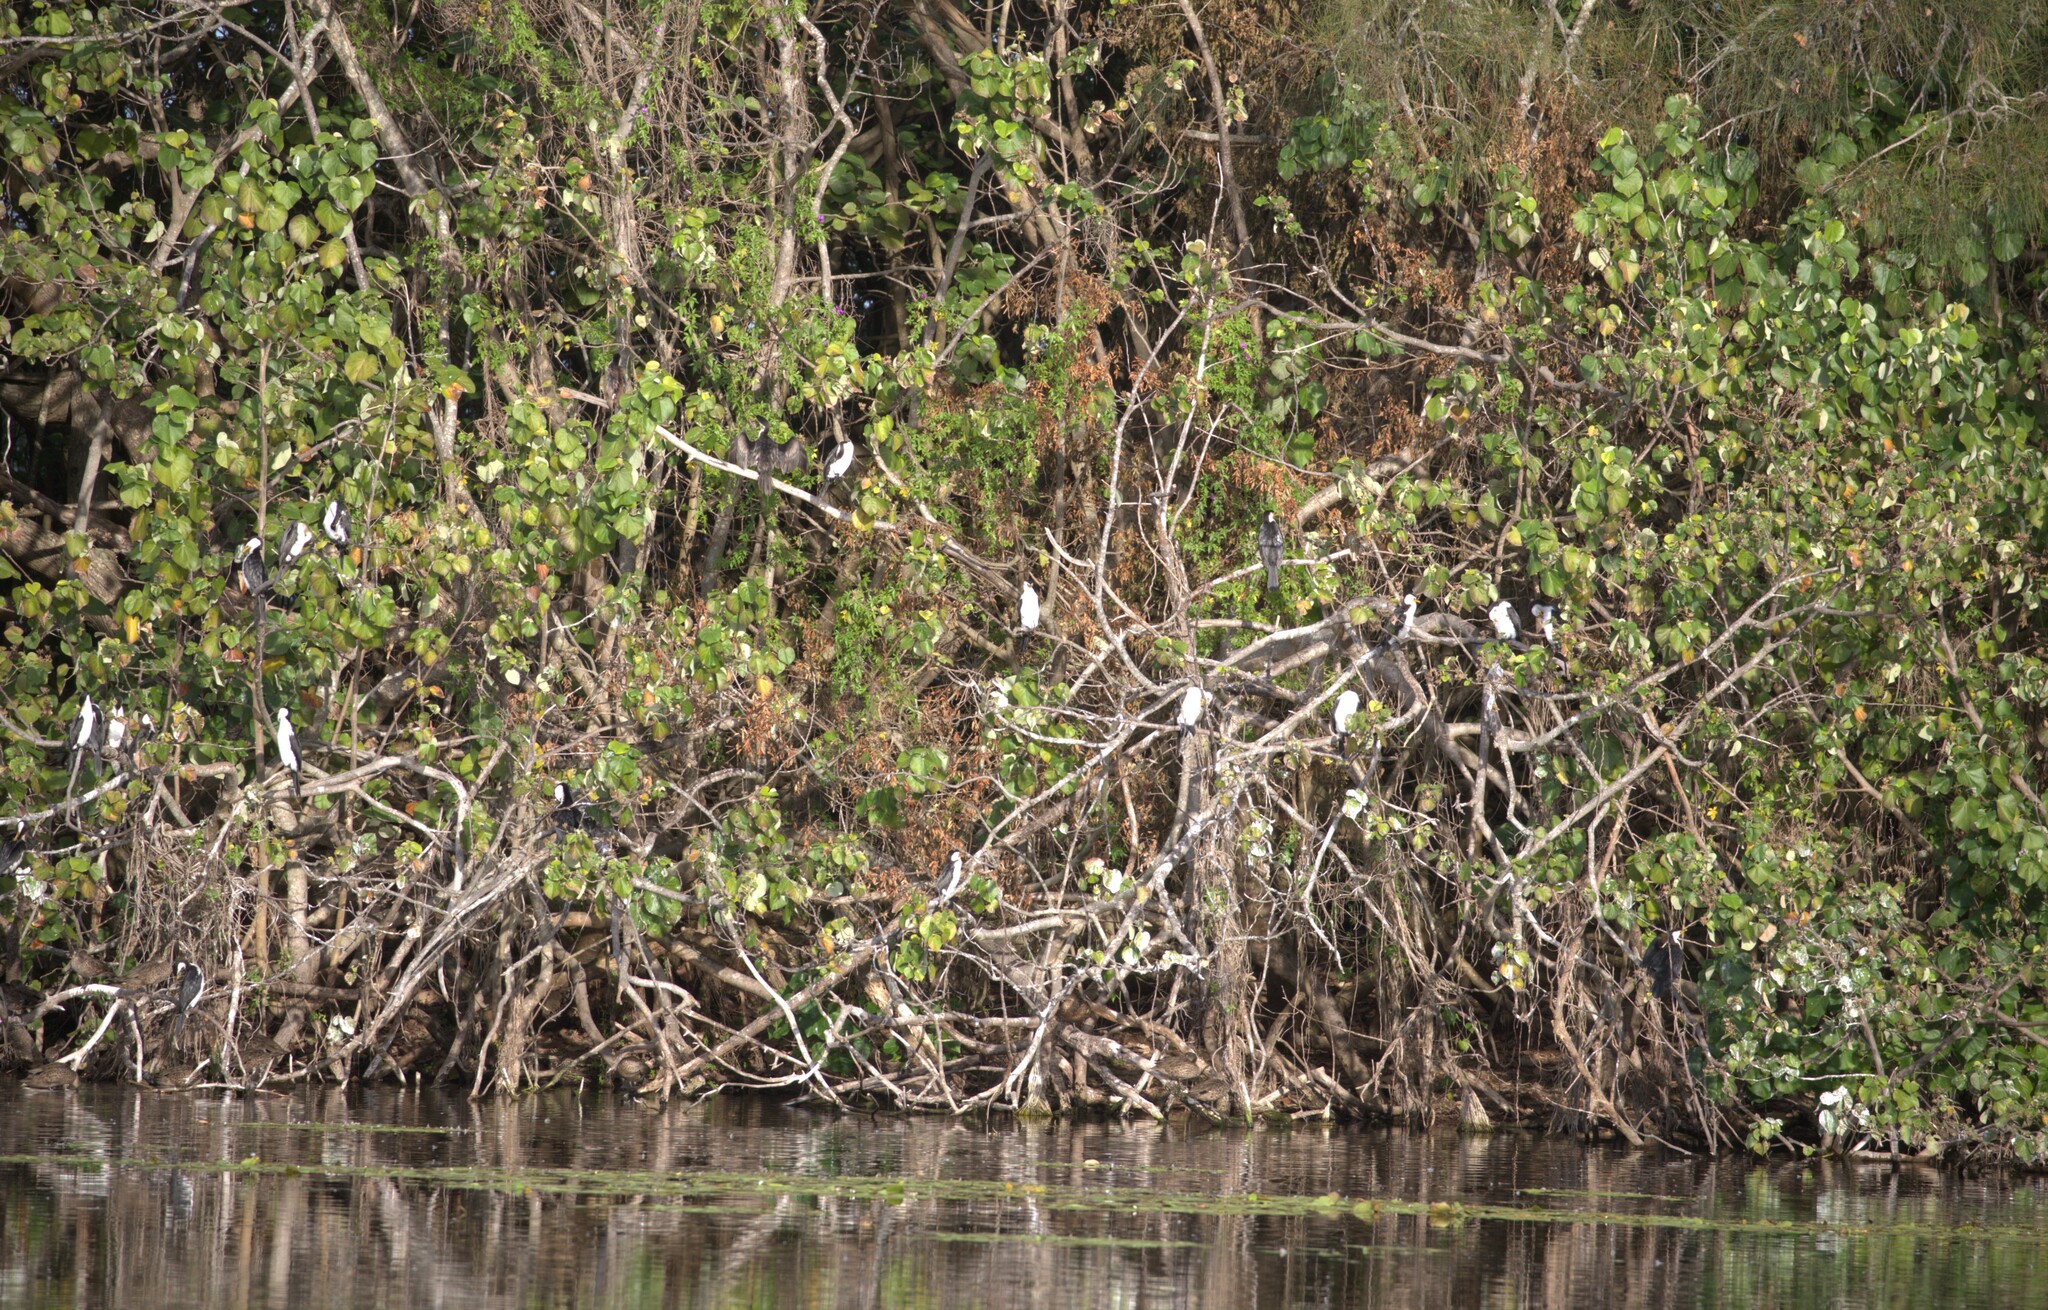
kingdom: Animalia
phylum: Chordata
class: Aves
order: Suliformes
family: Phalacrocoracidae
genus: Microcarbo
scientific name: Microcarbo melanoleucos
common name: Little pied cormorant
